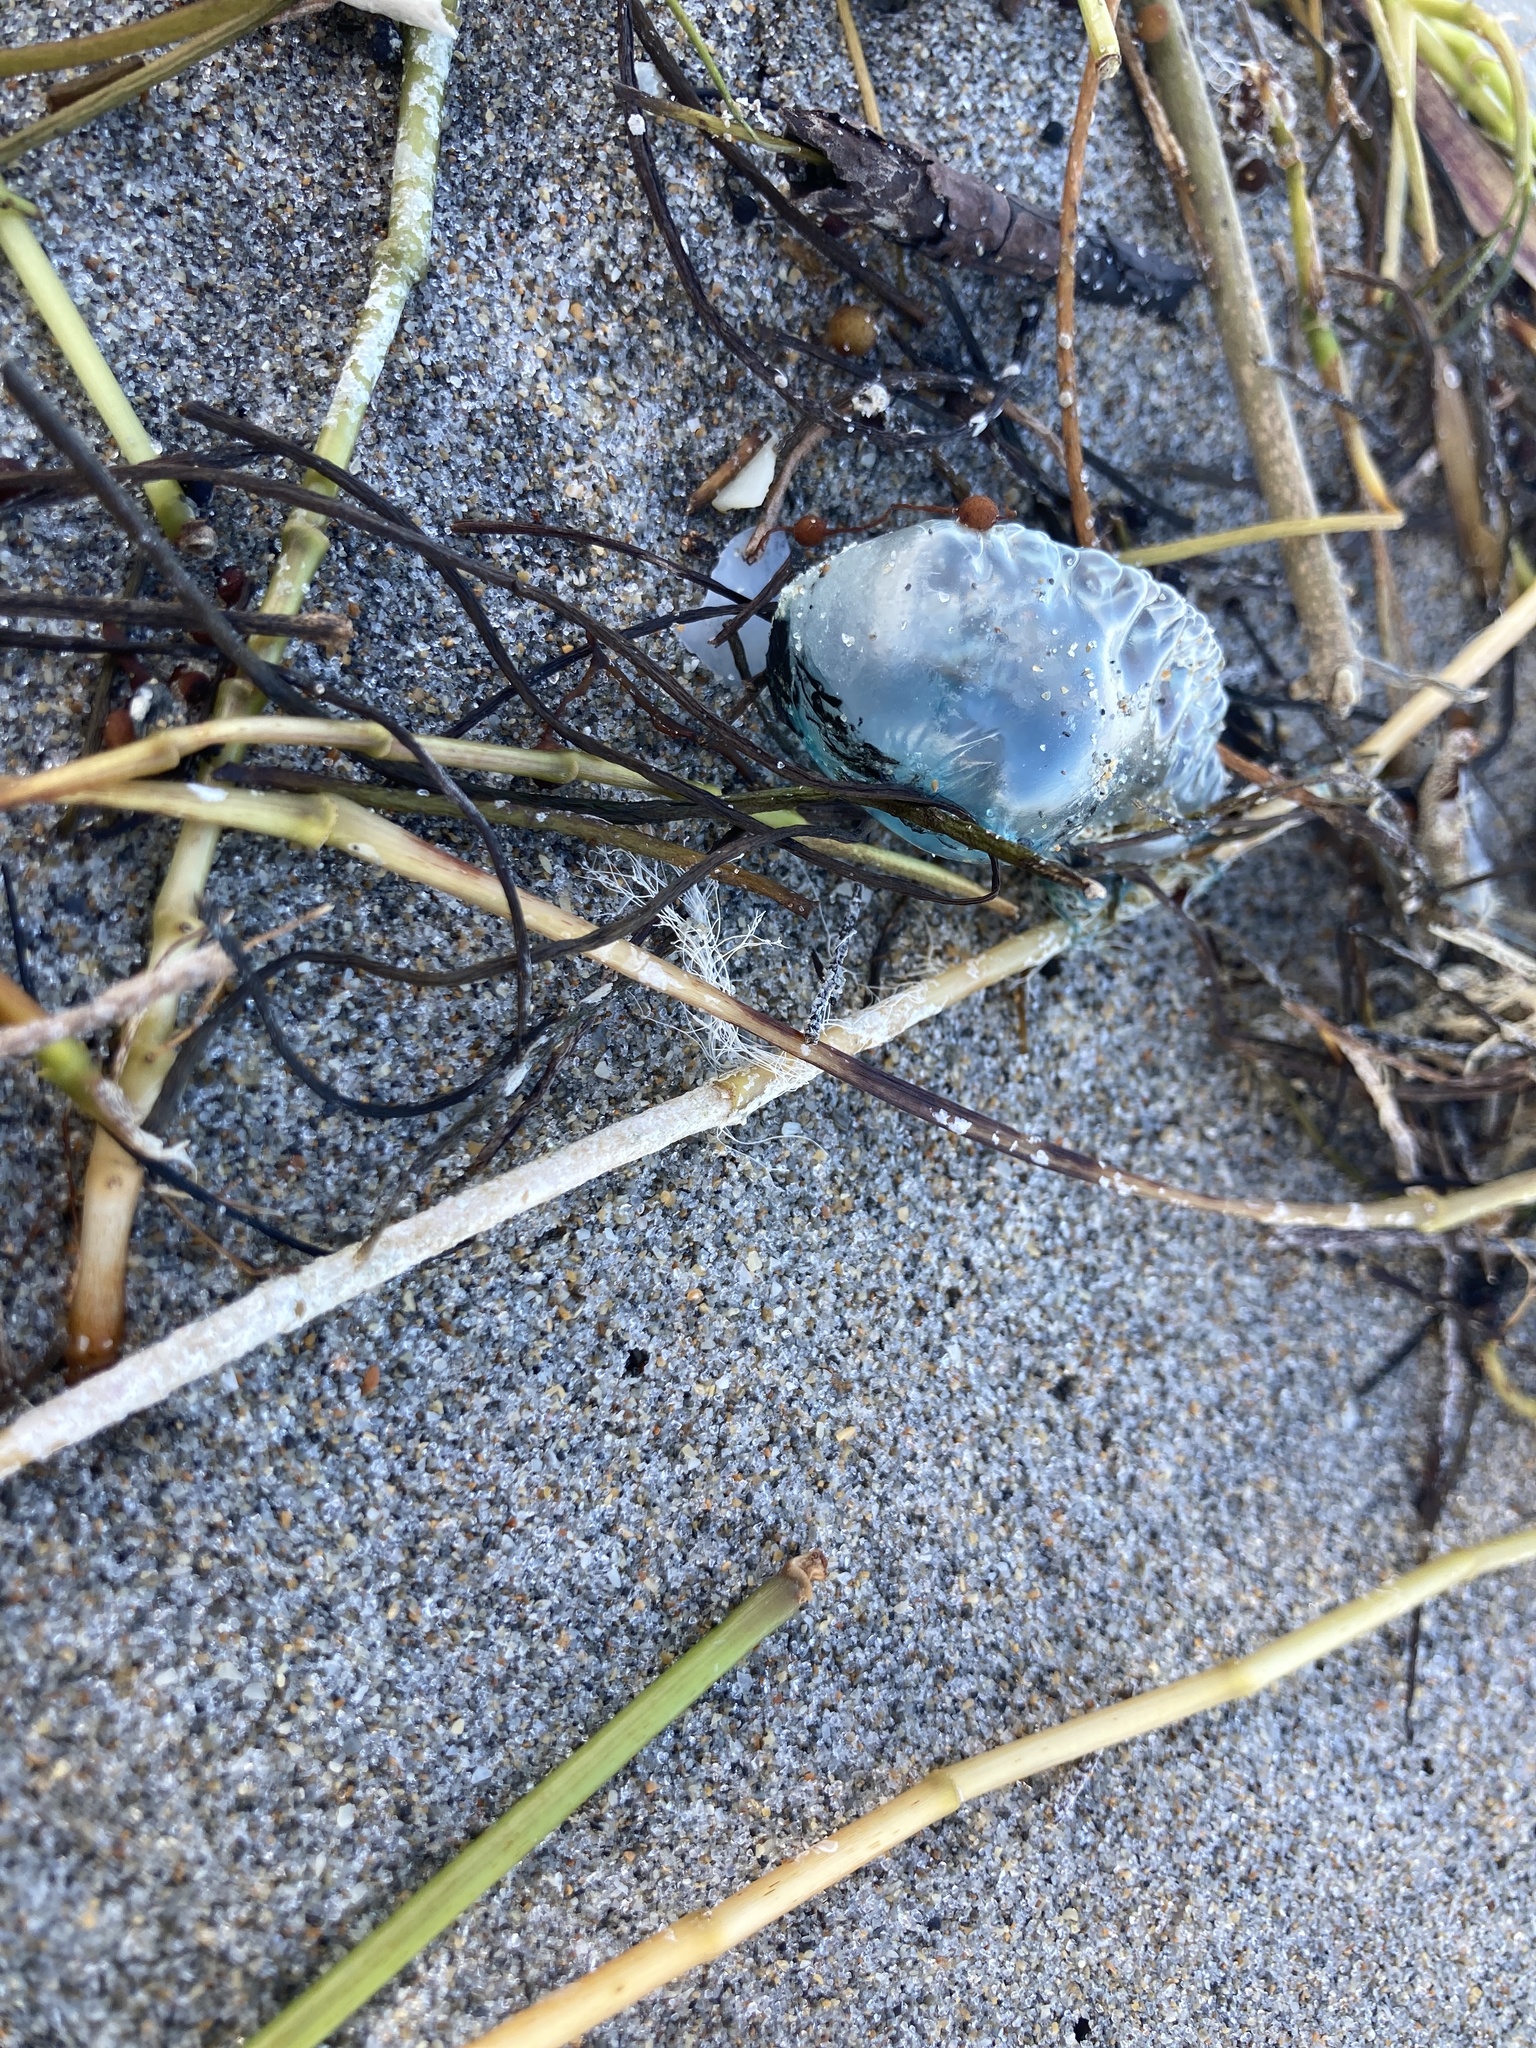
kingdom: Animalia
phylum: Cnidaria
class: Hydrozoa
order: Siphonophorae
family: Physaliidae
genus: Physalia
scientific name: Physalia physalis
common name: Portuguese man-of-war
